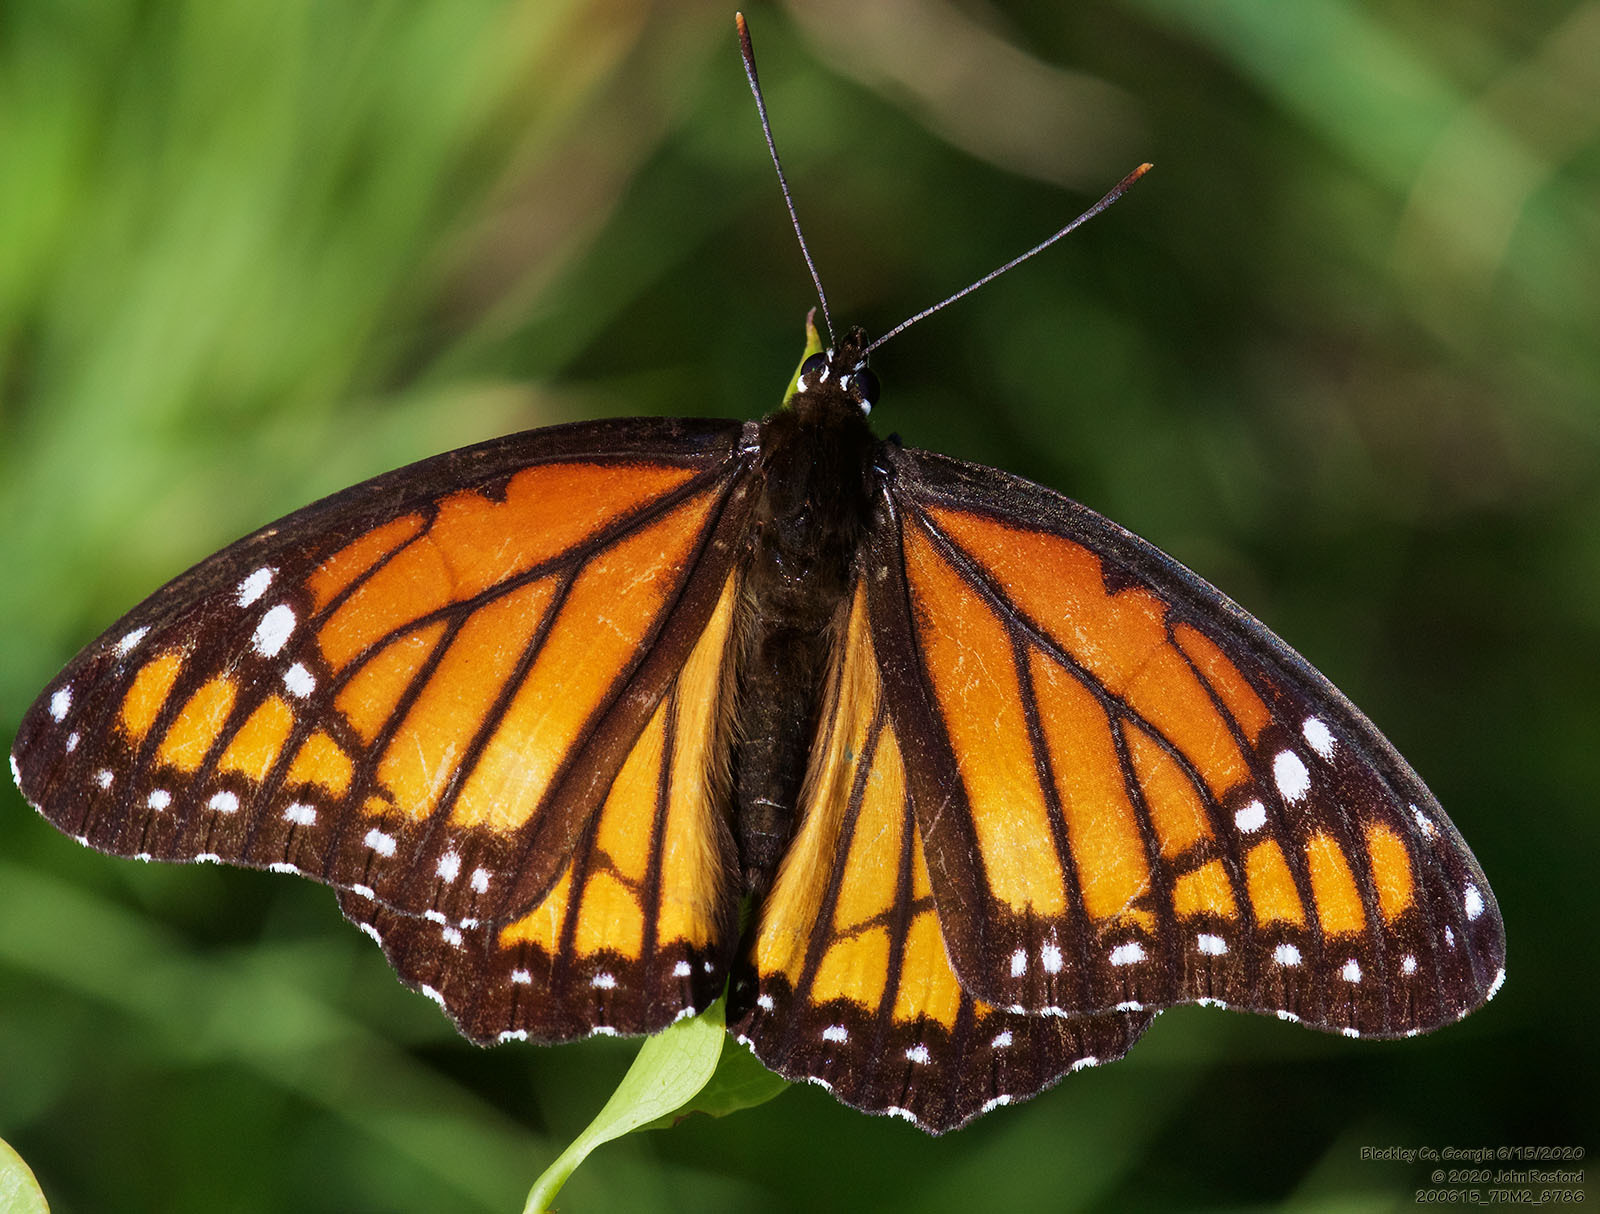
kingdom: Animalia
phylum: Arthropoda
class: Insecta
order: Lepidoptera
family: Nymphalidae
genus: Limenitis
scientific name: Limenitis archippus
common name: Viceroy
